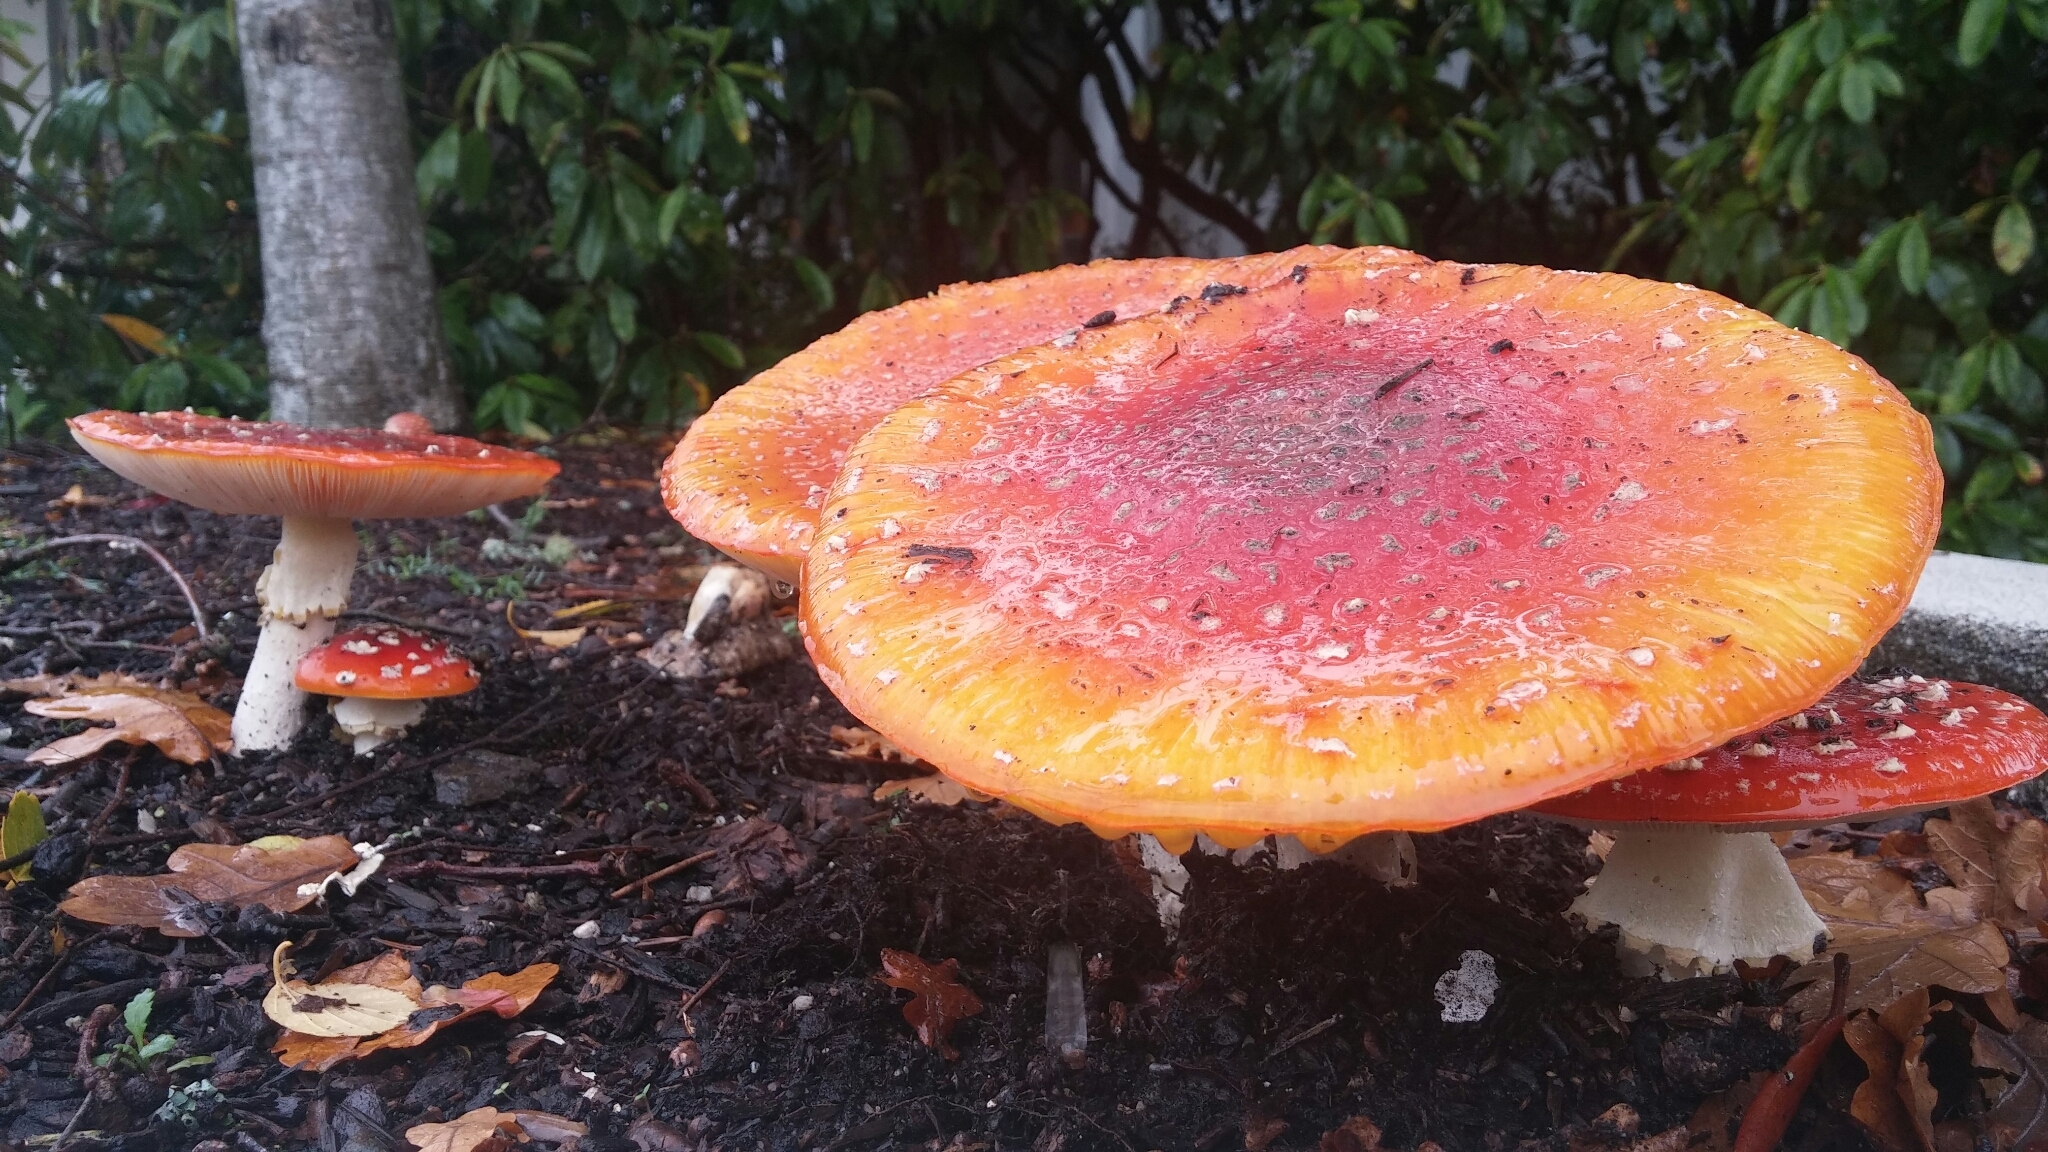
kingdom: Fungi
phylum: Basidiomycota
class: Agaricomycetes
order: Agaricales
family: Amanitaceae
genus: Amanita
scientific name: Amanita muscaria
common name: Fly agaric
